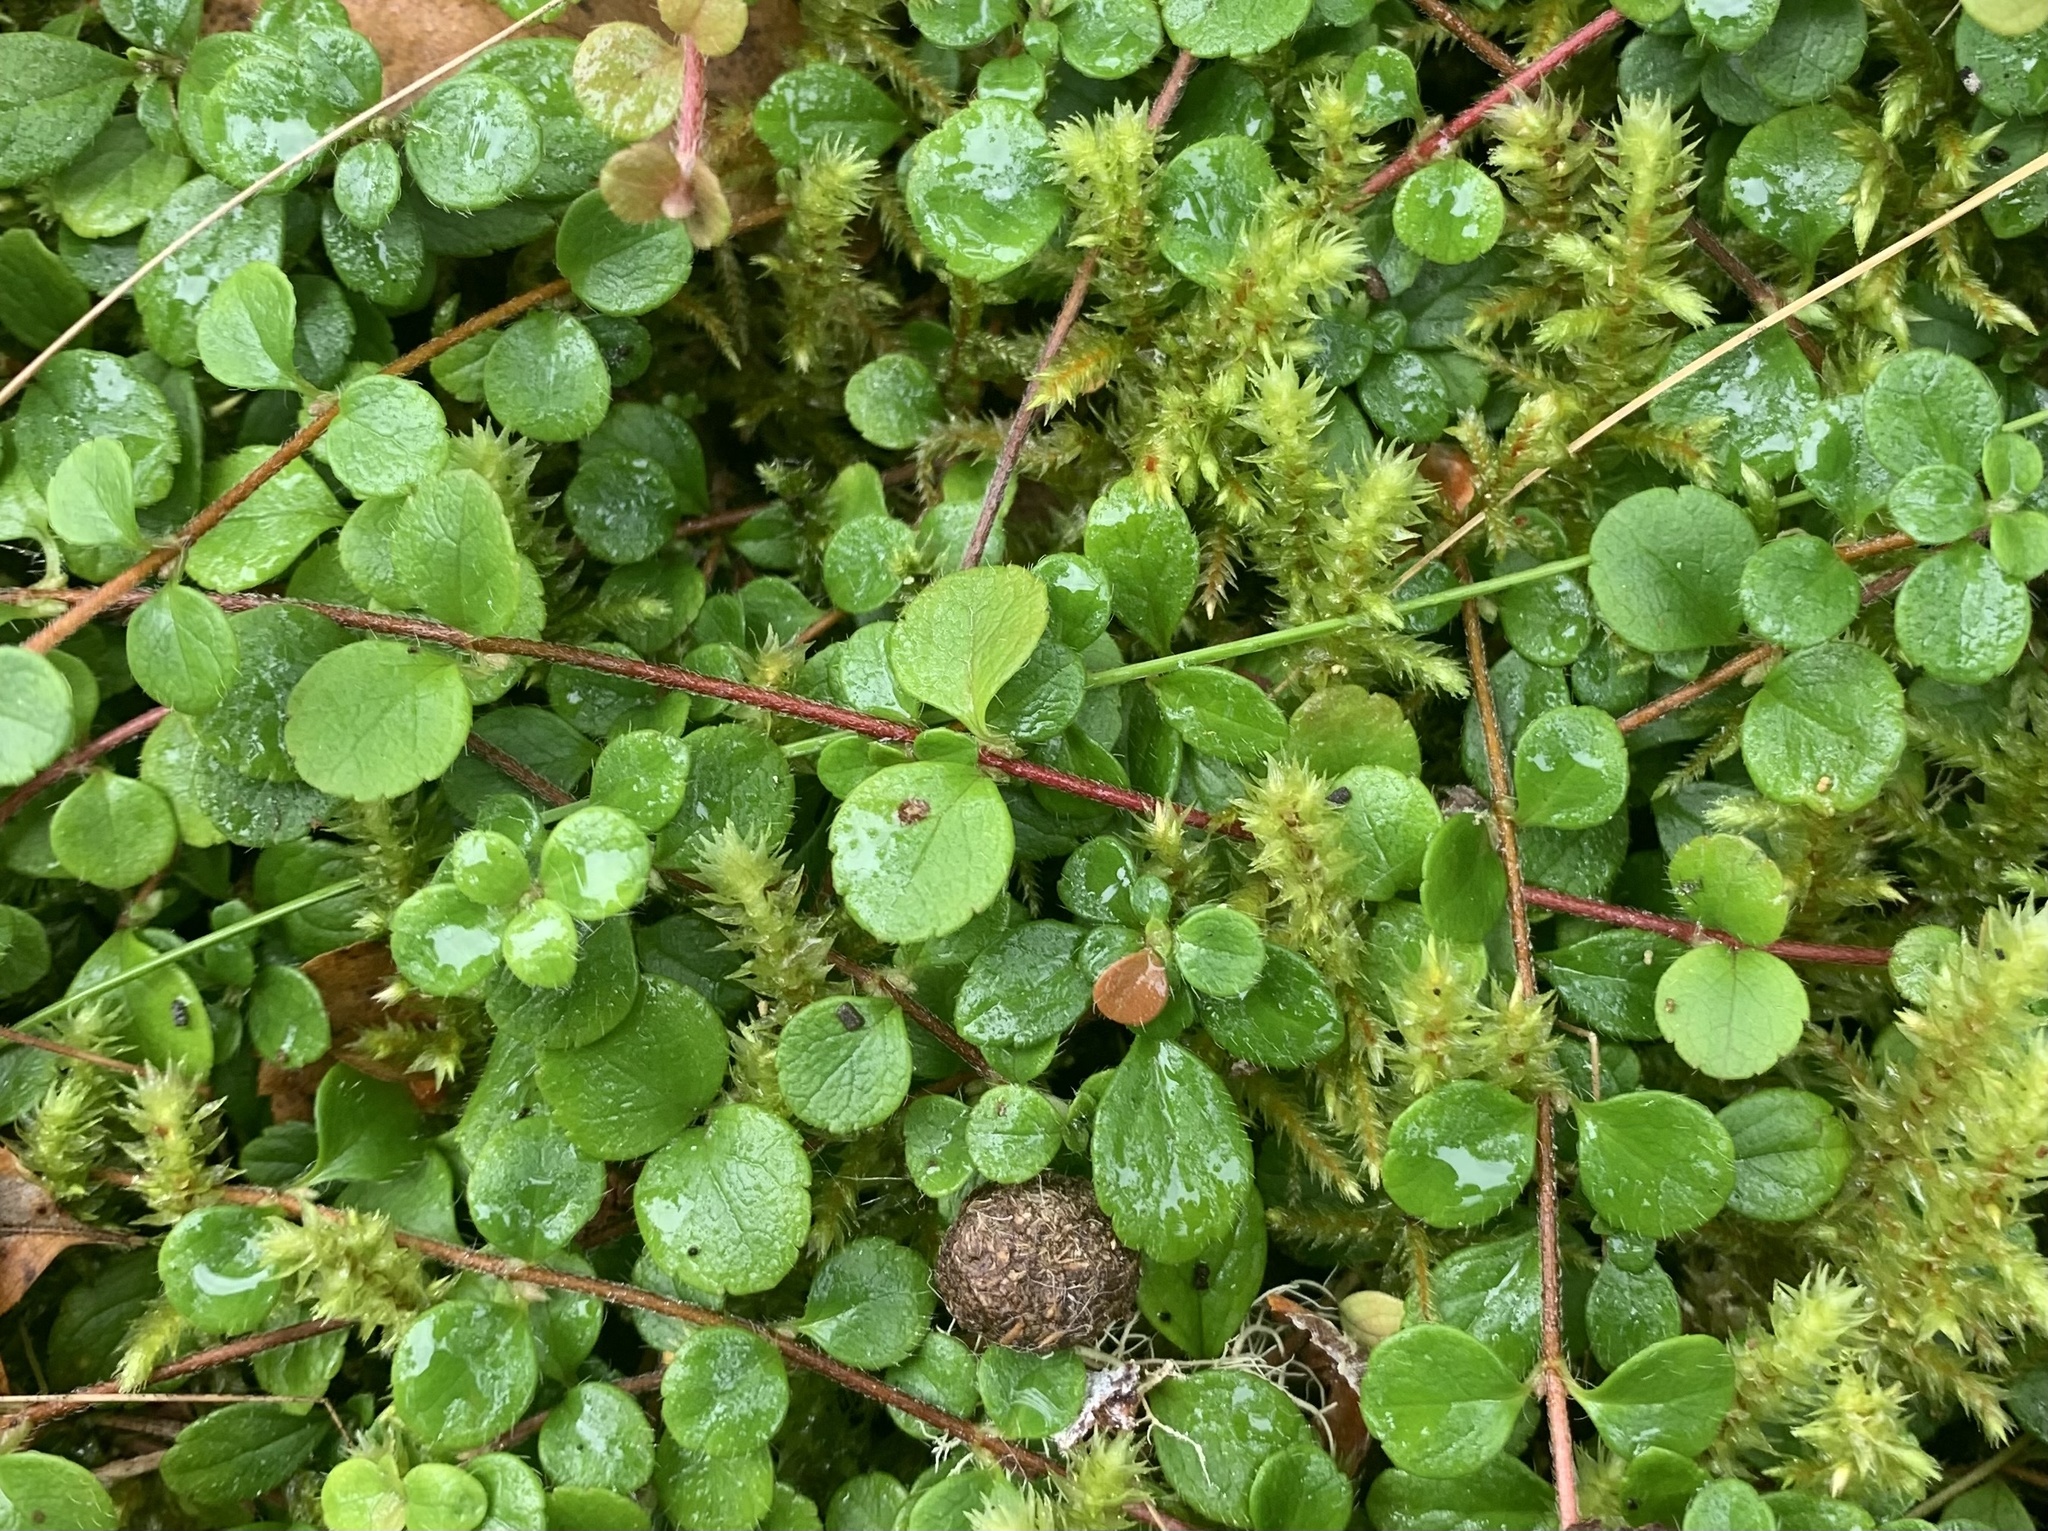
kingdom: Plantae
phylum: Tracheophyta
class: Magnoliopsida
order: Dipsacales
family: Caprifoliaceae
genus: Linnaea
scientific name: Linnaea borealis
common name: Twinflower
